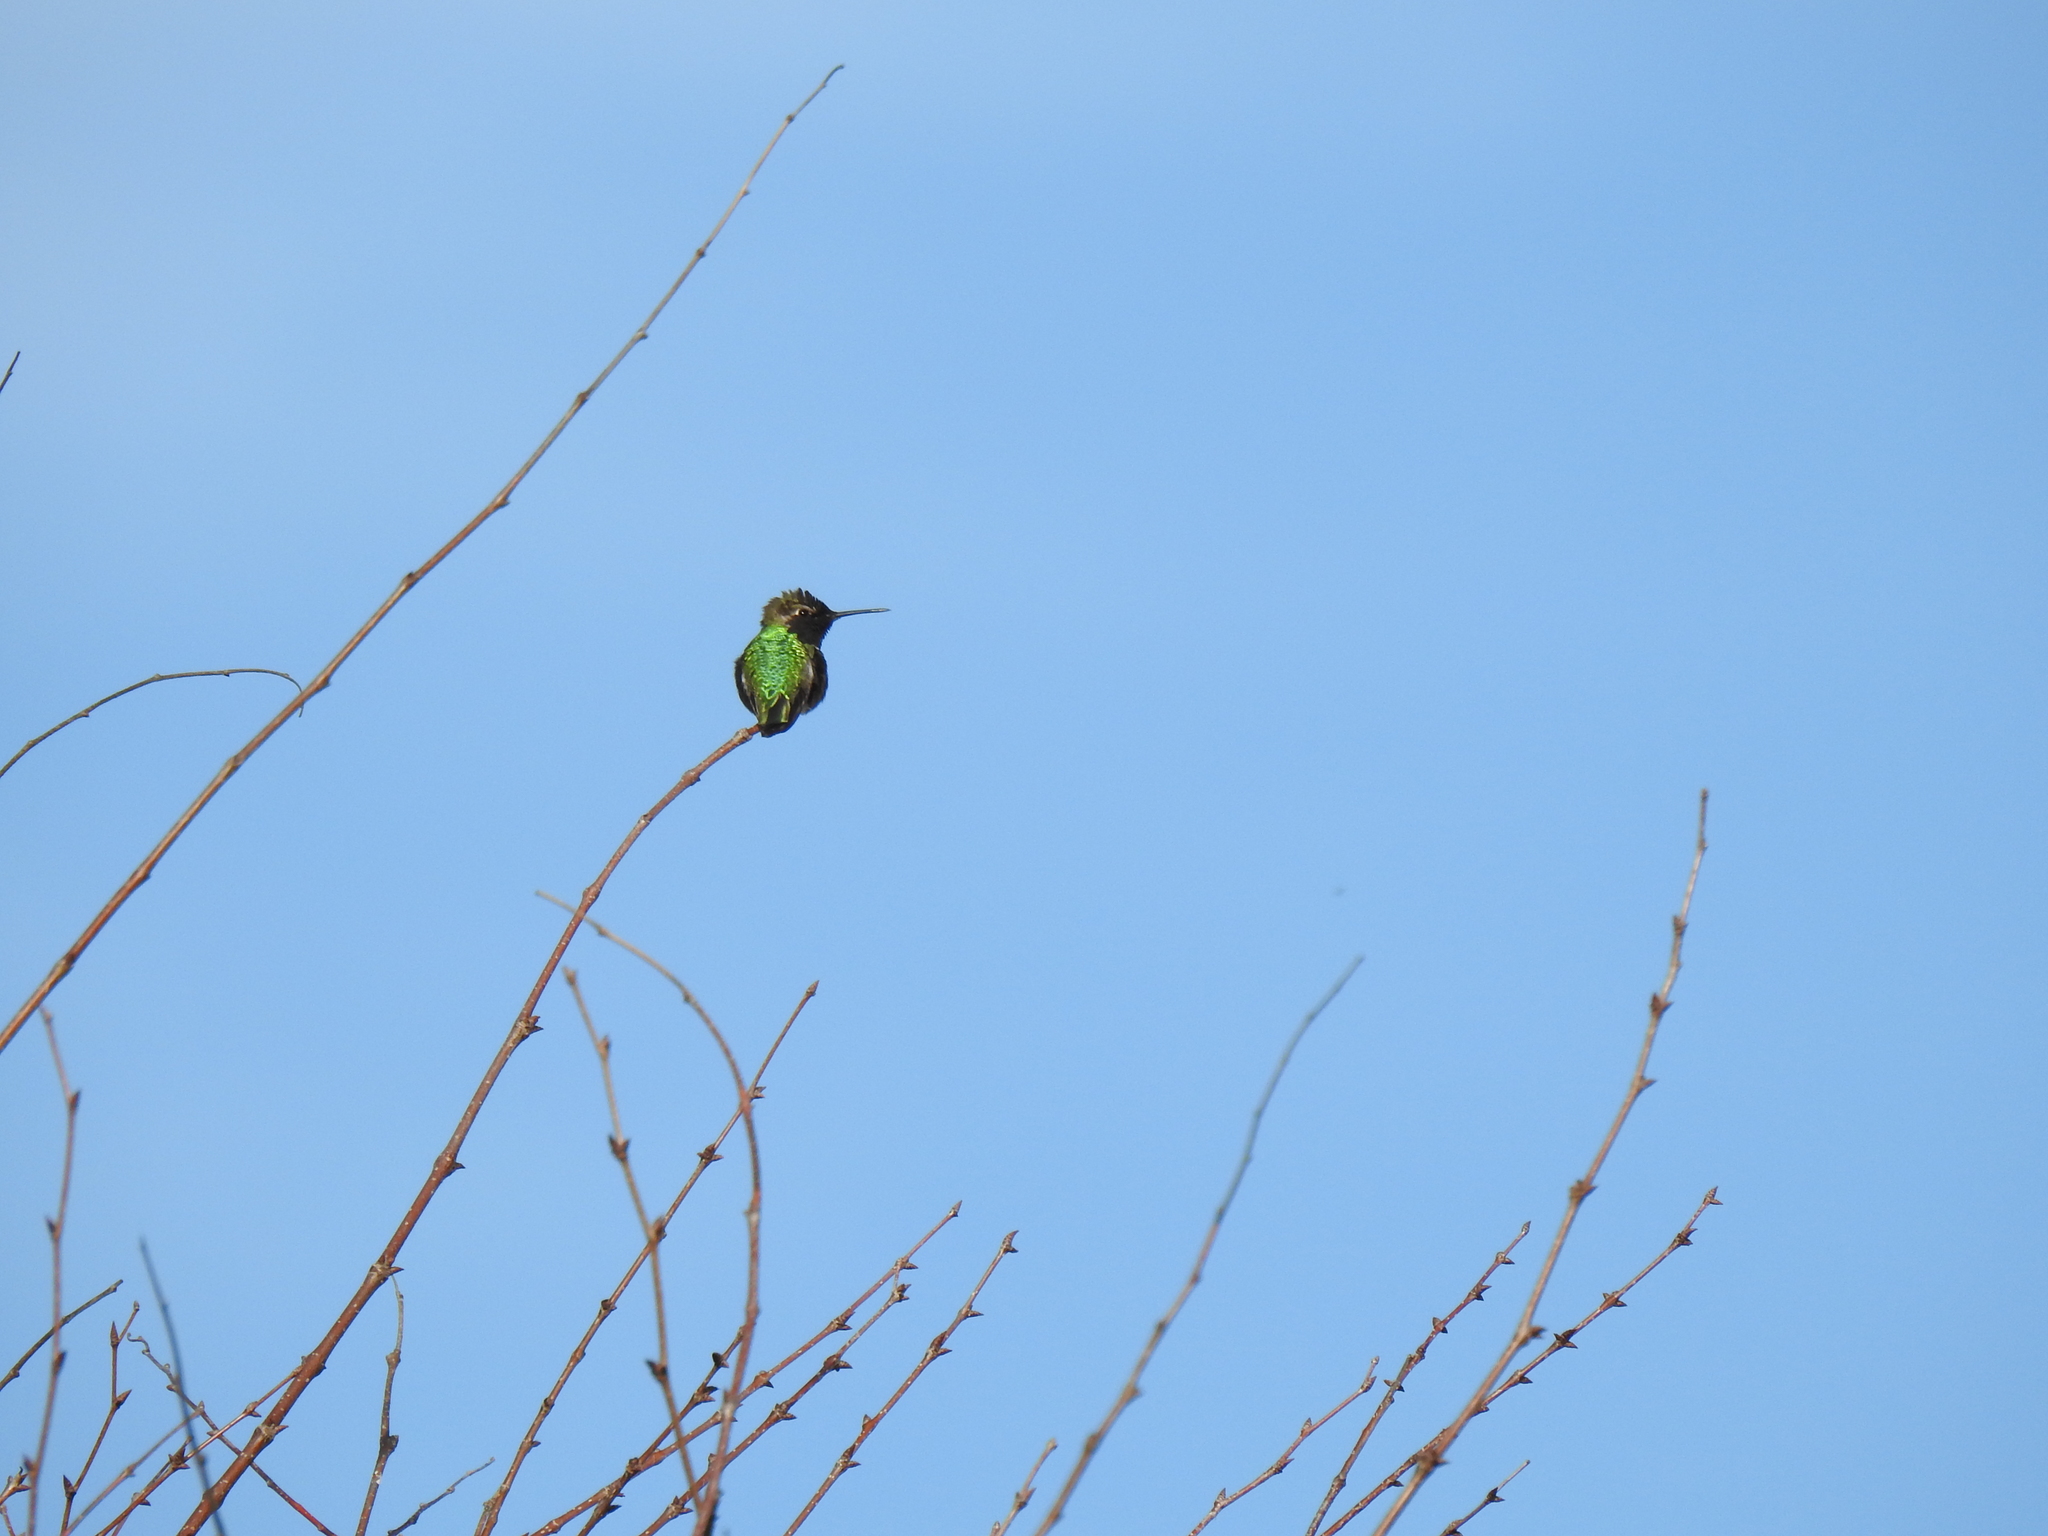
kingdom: Animalia
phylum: Chordata
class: Aves
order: Apodiformes
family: Trochilidae
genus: Calypte
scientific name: Calypte anna
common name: Anna's hummingbird
